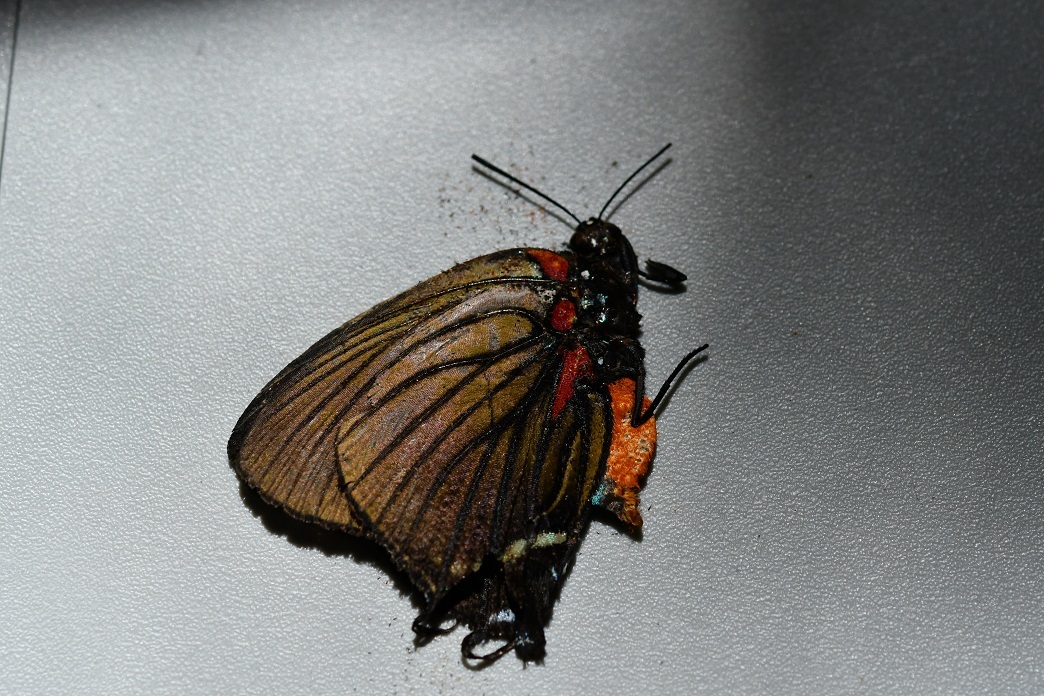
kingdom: Animalia
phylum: Arthropoda
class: Insecta
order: Lepidoptera
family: Lycaenidae
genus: Thecla
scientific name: Thecla polybe
